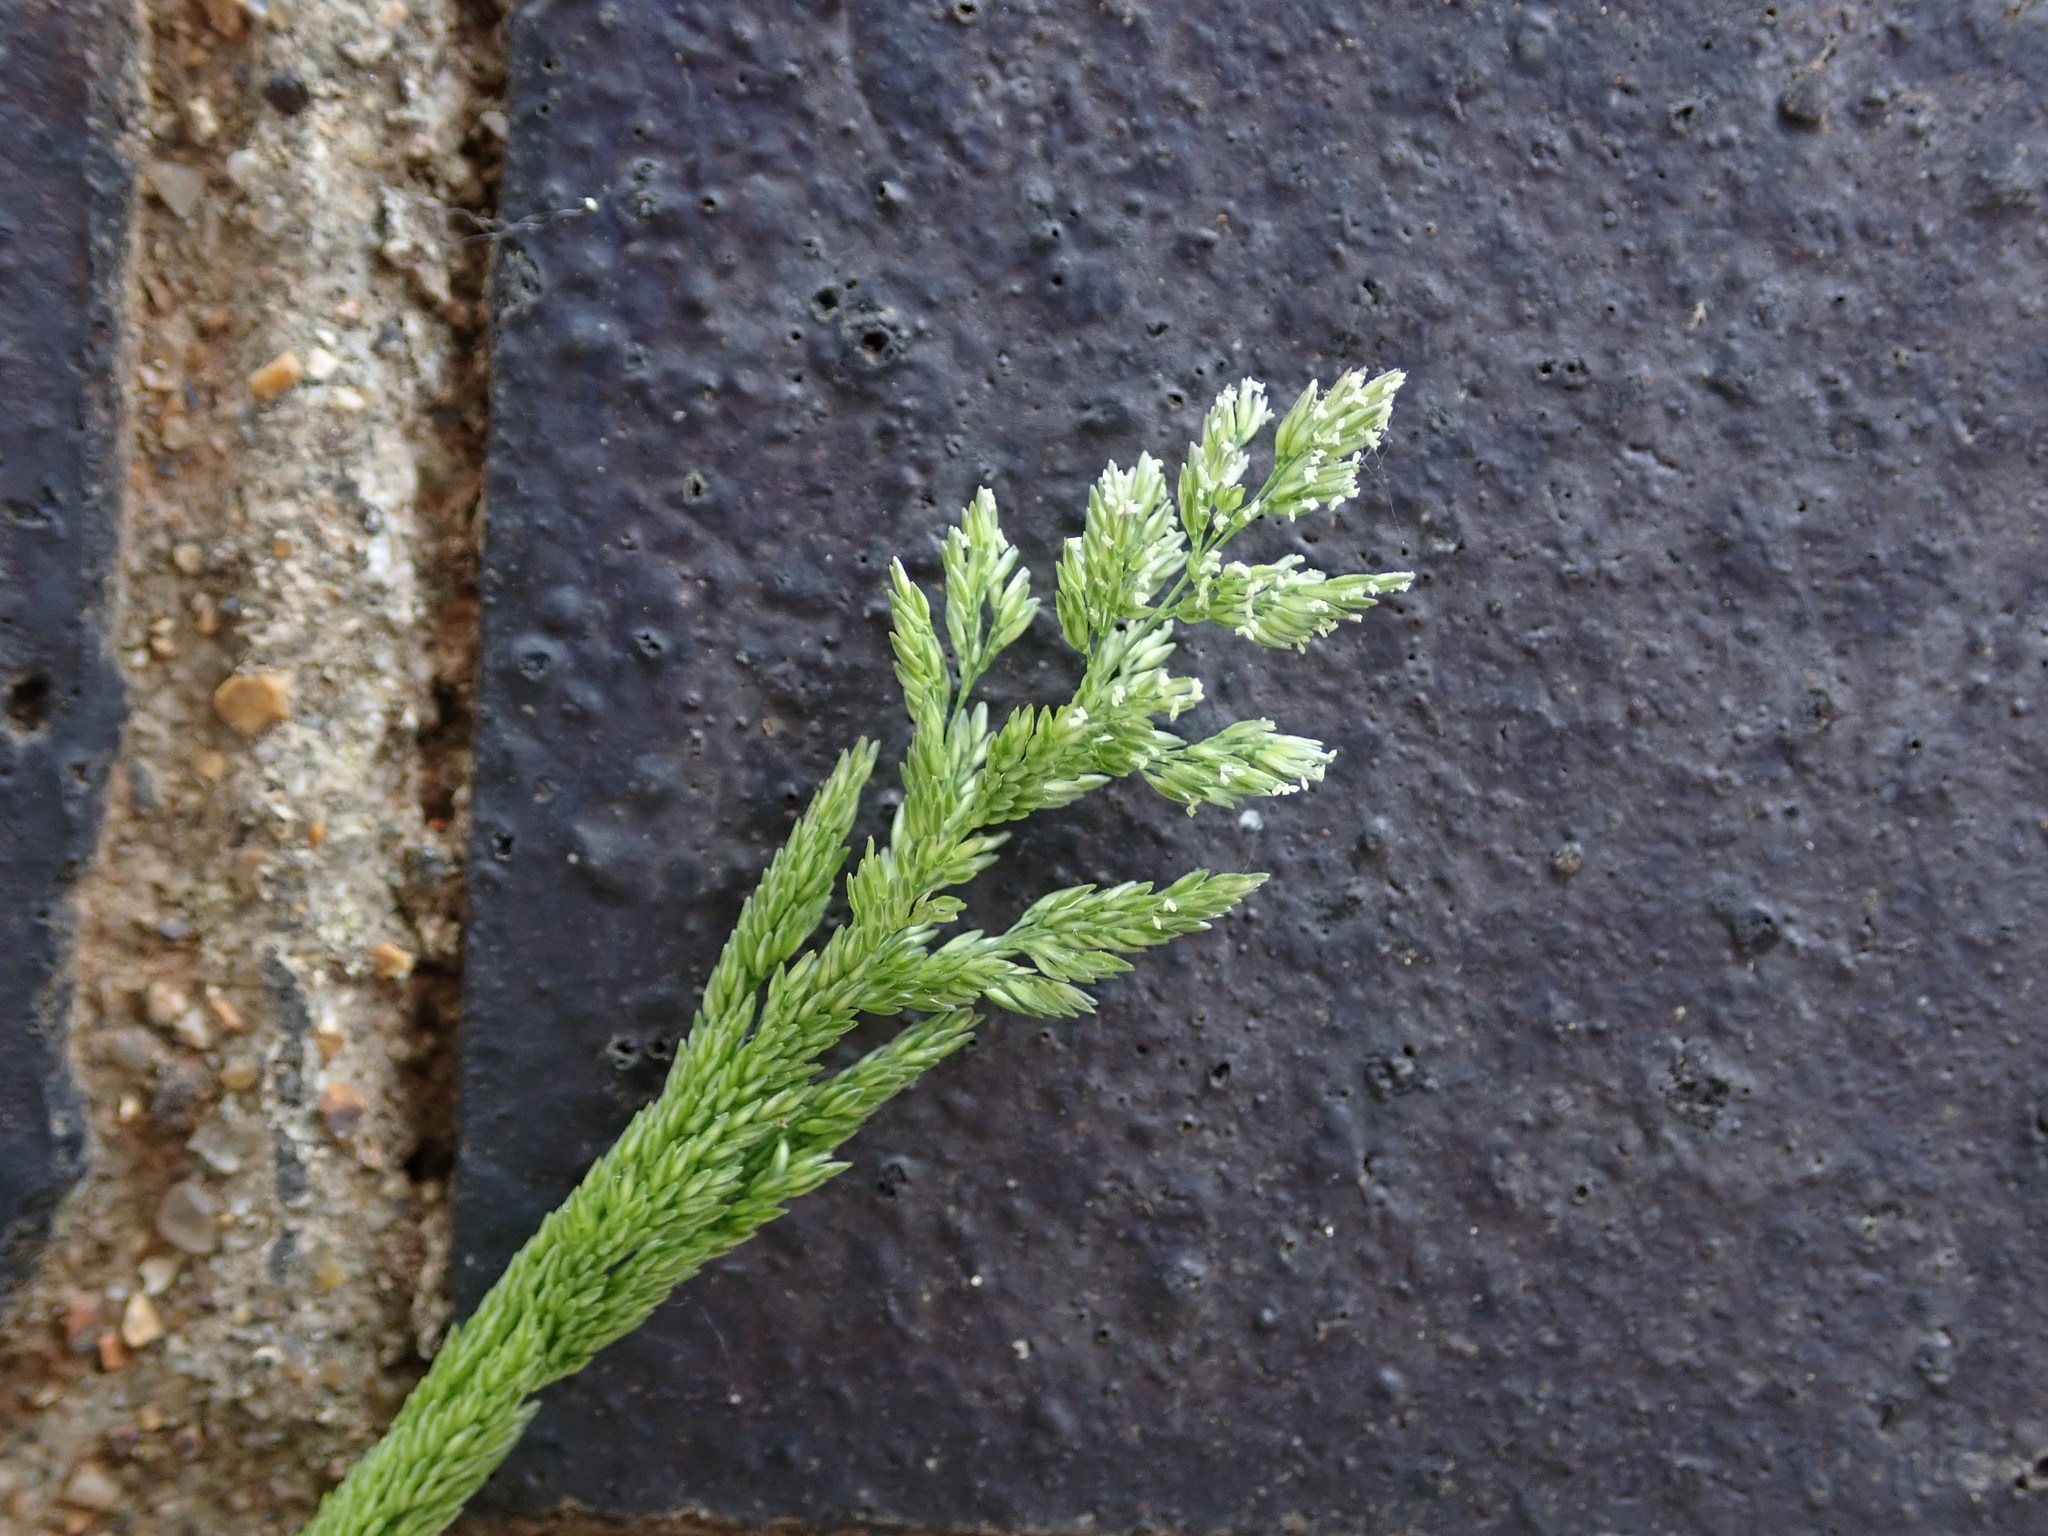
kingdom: Plantae
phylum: Tracheophyta
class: Liliopsida
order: Poales
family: Poaceae
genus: Polypogon
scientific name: Polypogon viridis
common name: Water bent
